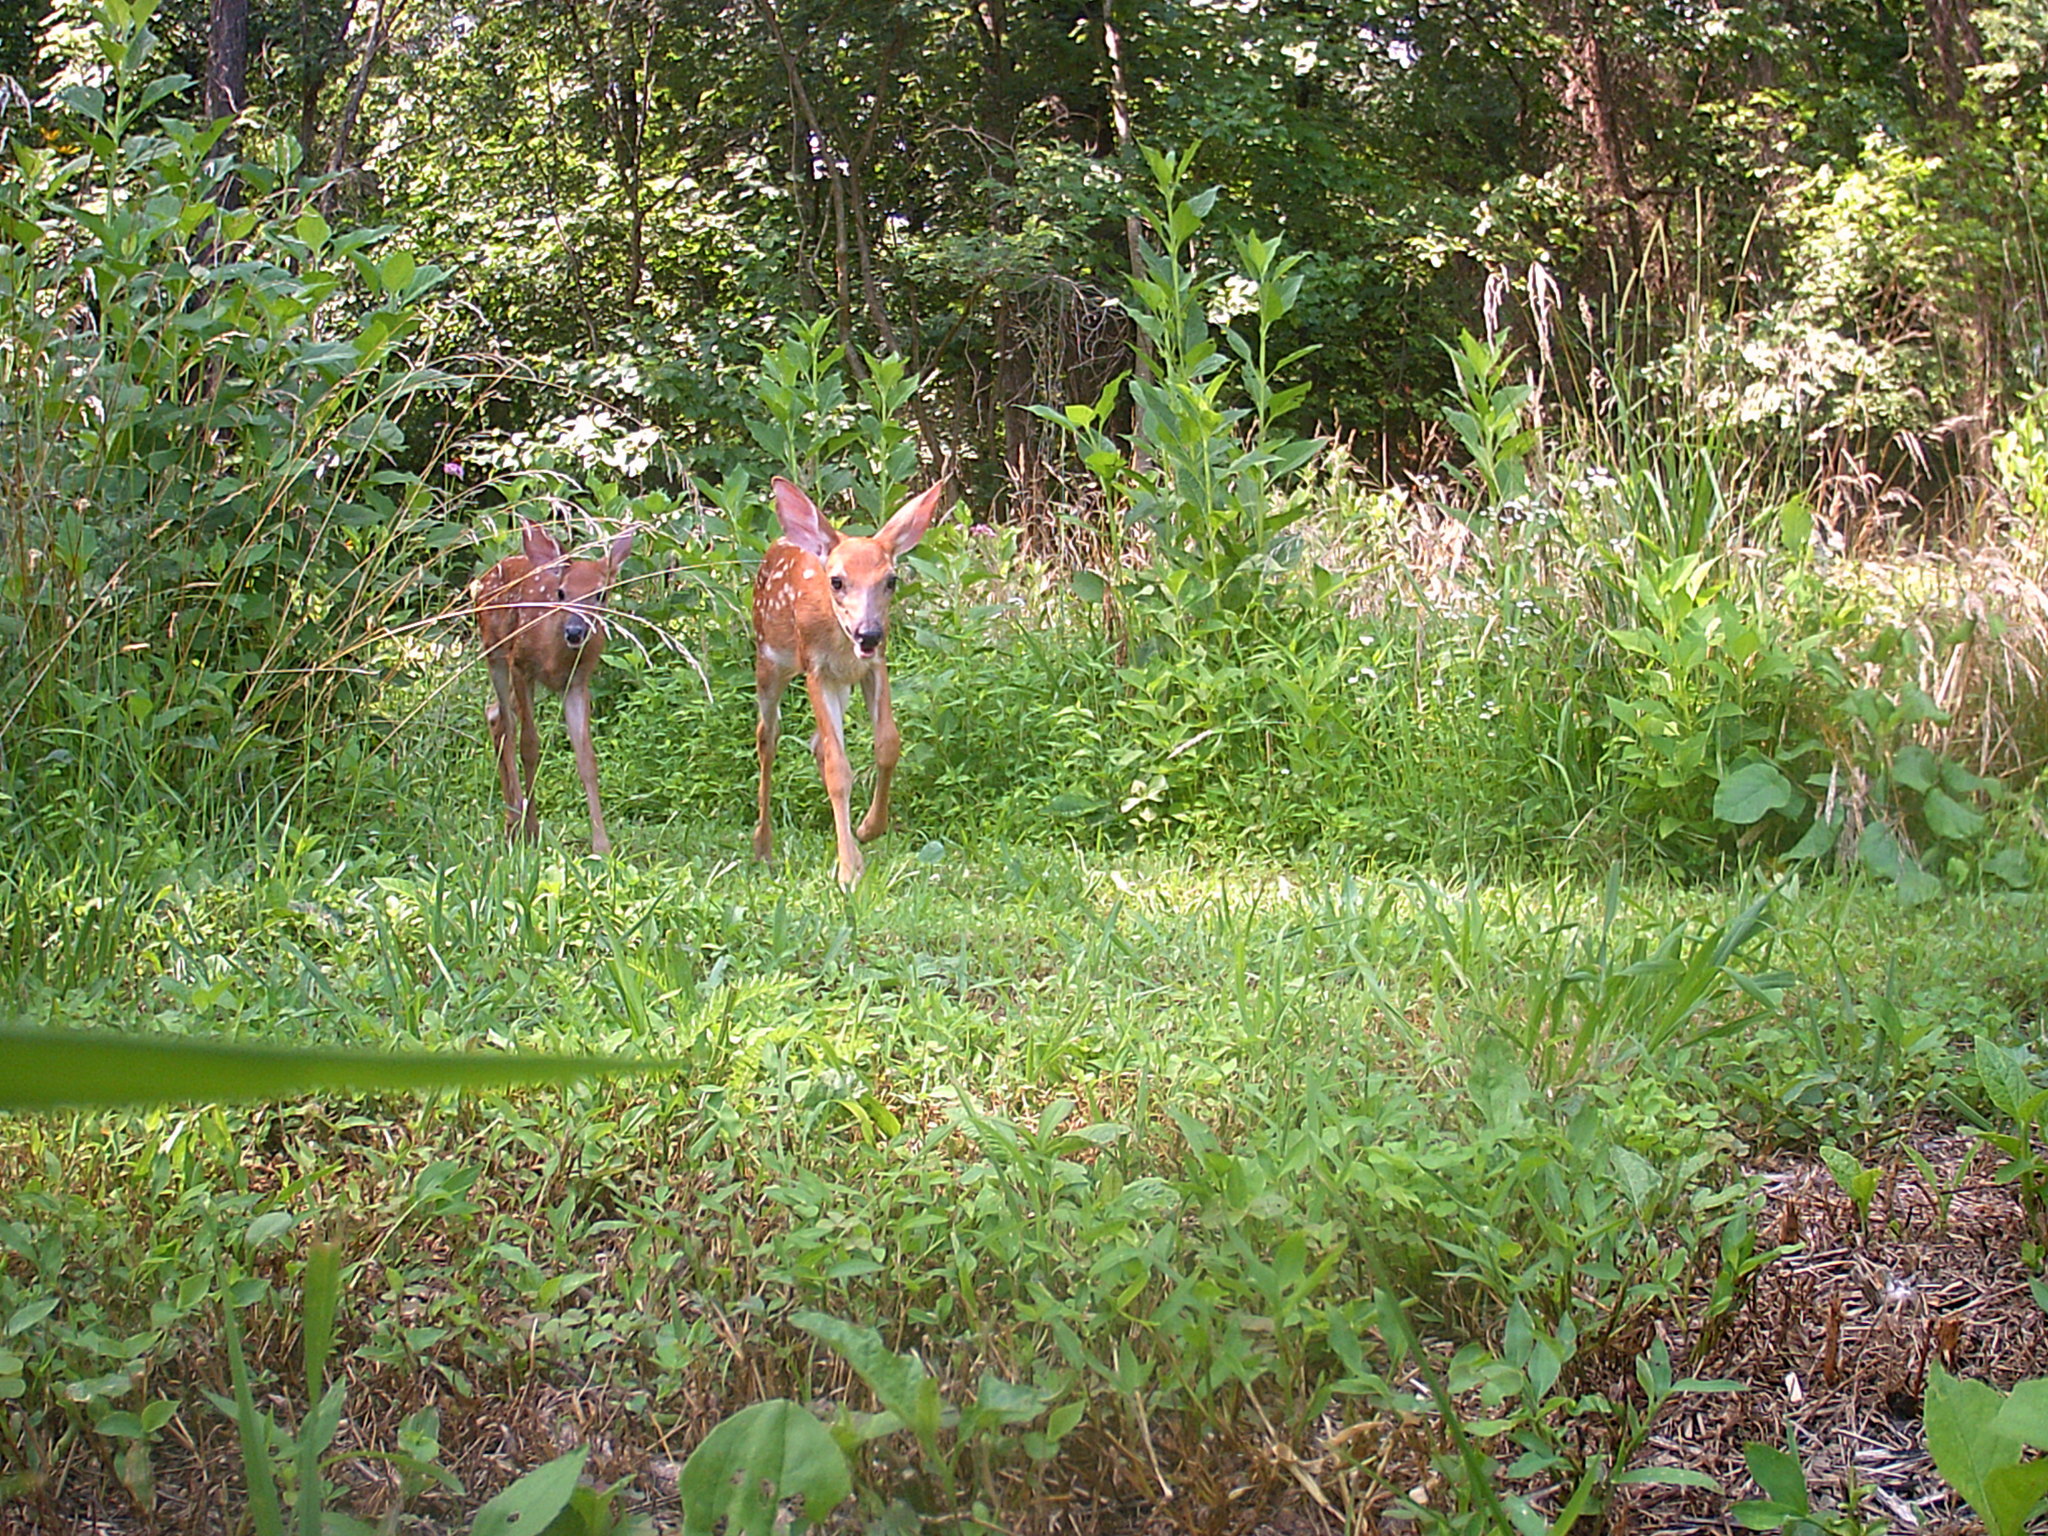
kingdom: Animalia
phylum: Chordata
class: Mammalia
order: Artiodactyla
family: Cervidae
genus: Odocoileus
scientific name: Odocoileus virginianus
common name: White-tailed deer
